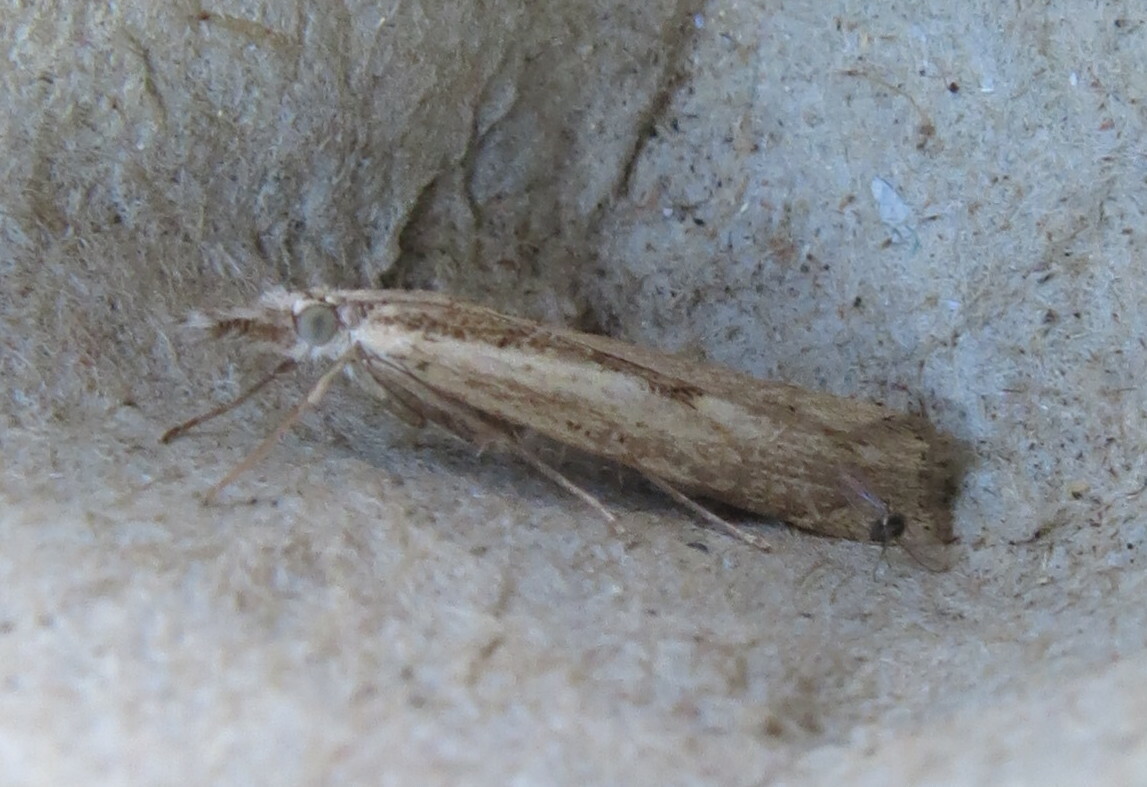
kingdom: Animalia
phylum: Arthropoda
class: Insecta
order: Lepidoptera
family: Crambidae
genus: Agriphila
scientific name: Agriphila geniculea
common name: Elbow-stripe grass-veneer
